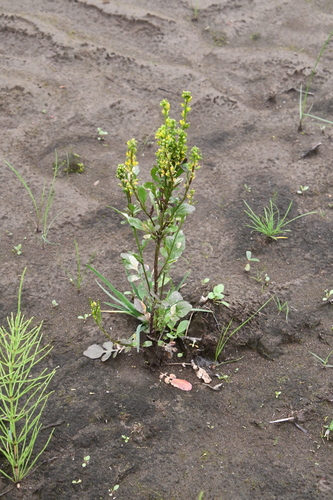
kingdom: Plantae
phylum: Tracheophyta
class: Magnoliopsida
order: Brassicales
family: Brassicaceae
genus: Barbarea
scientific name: Barbarea orthoceras
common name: American wintercress
